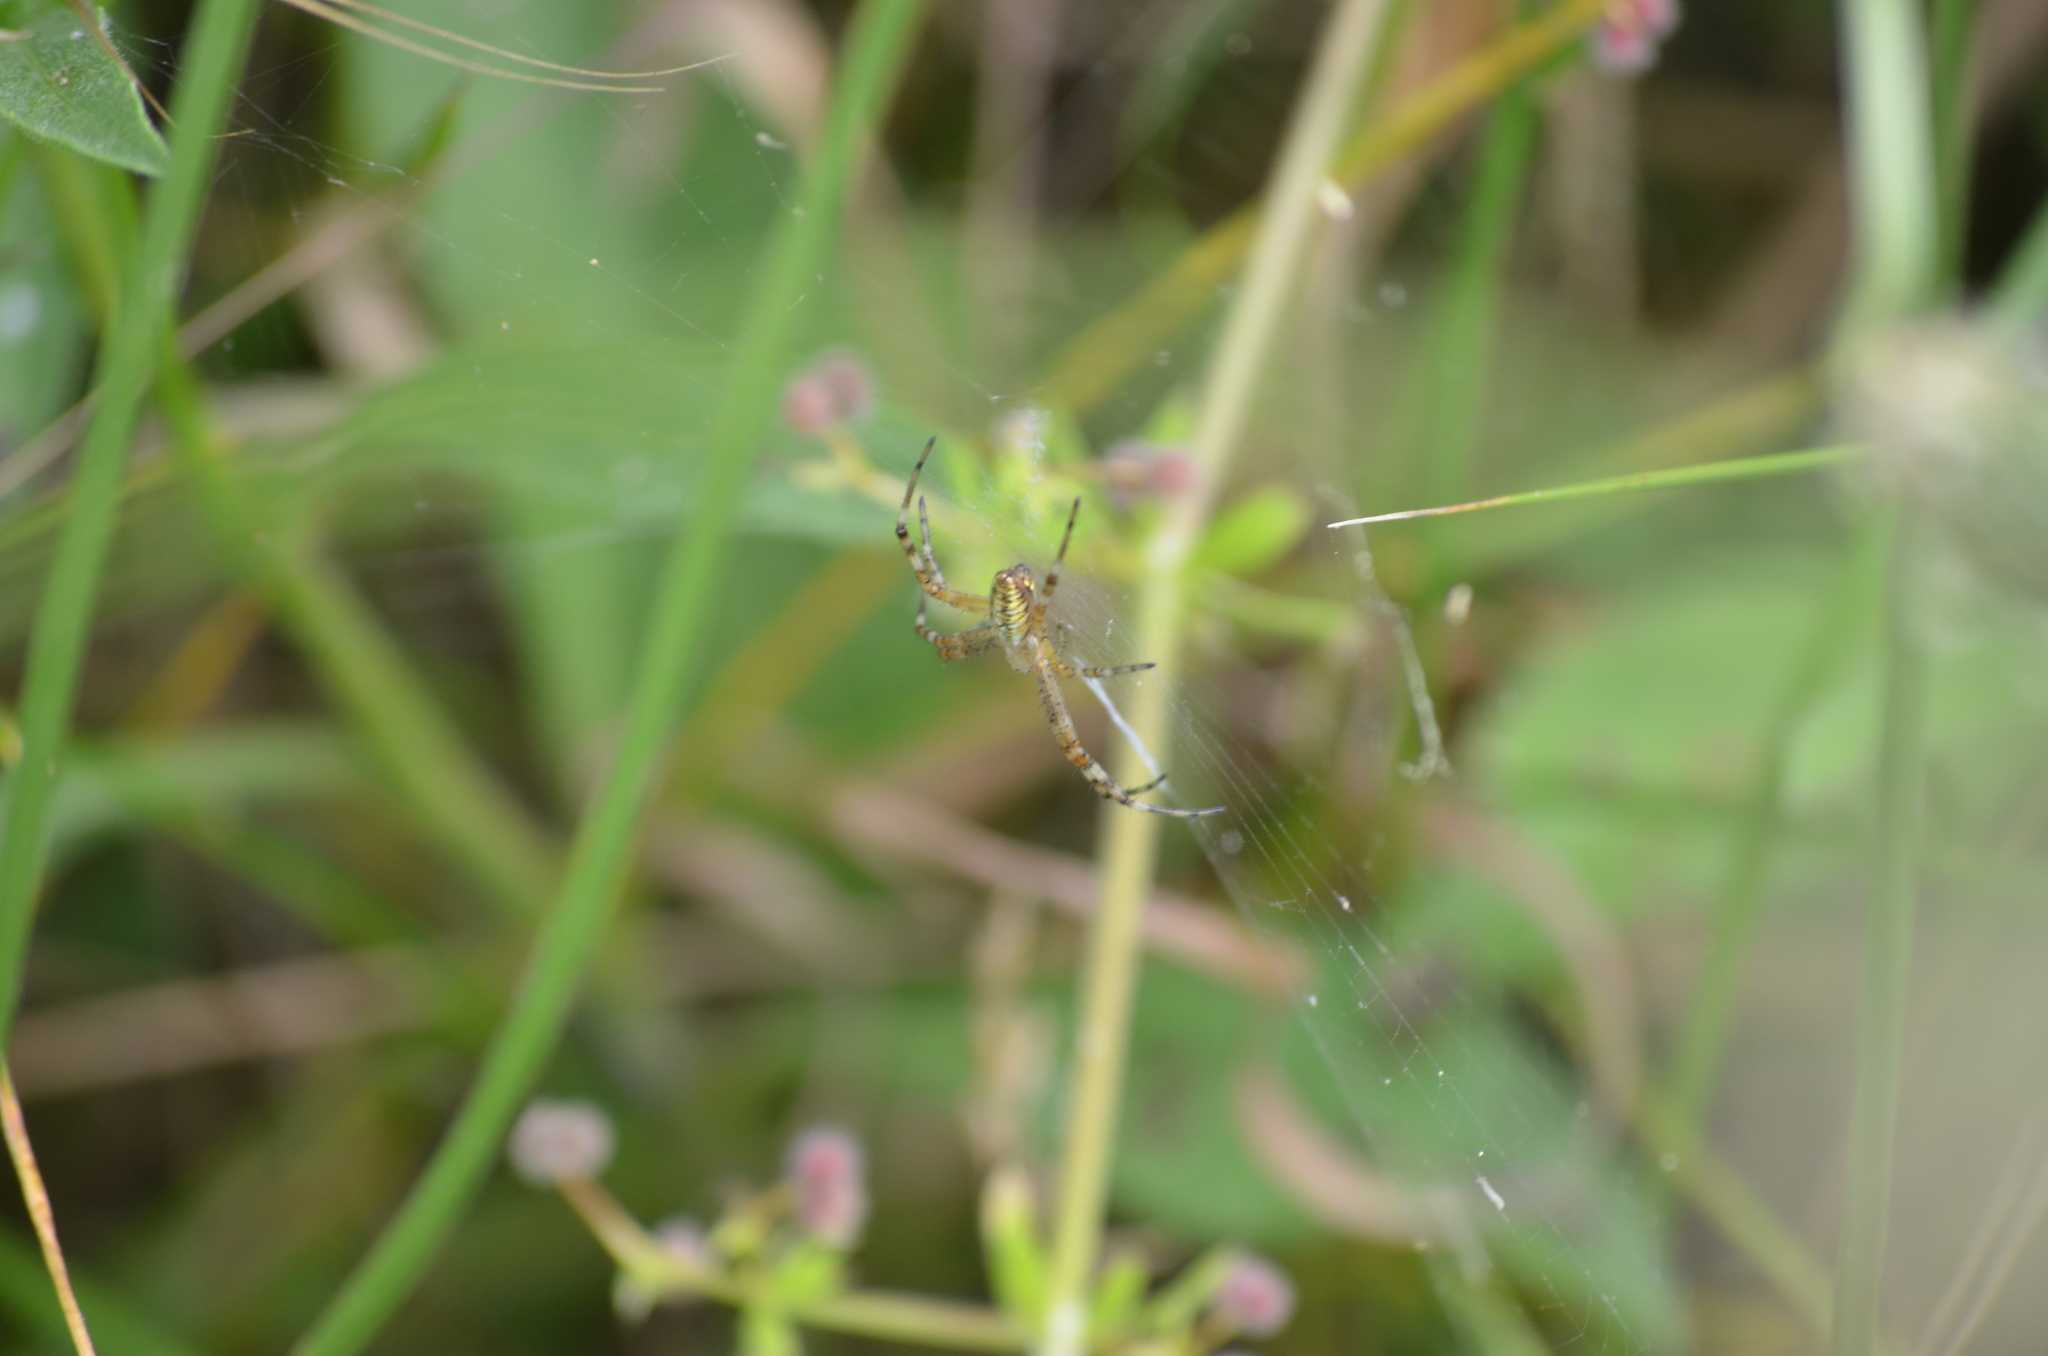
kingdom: Animalia
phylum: Arthropoda
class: Arachnida
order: Araneae
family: Araneidae
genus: Argiope
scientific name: Argiope bruennichi
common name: Wasp spider
